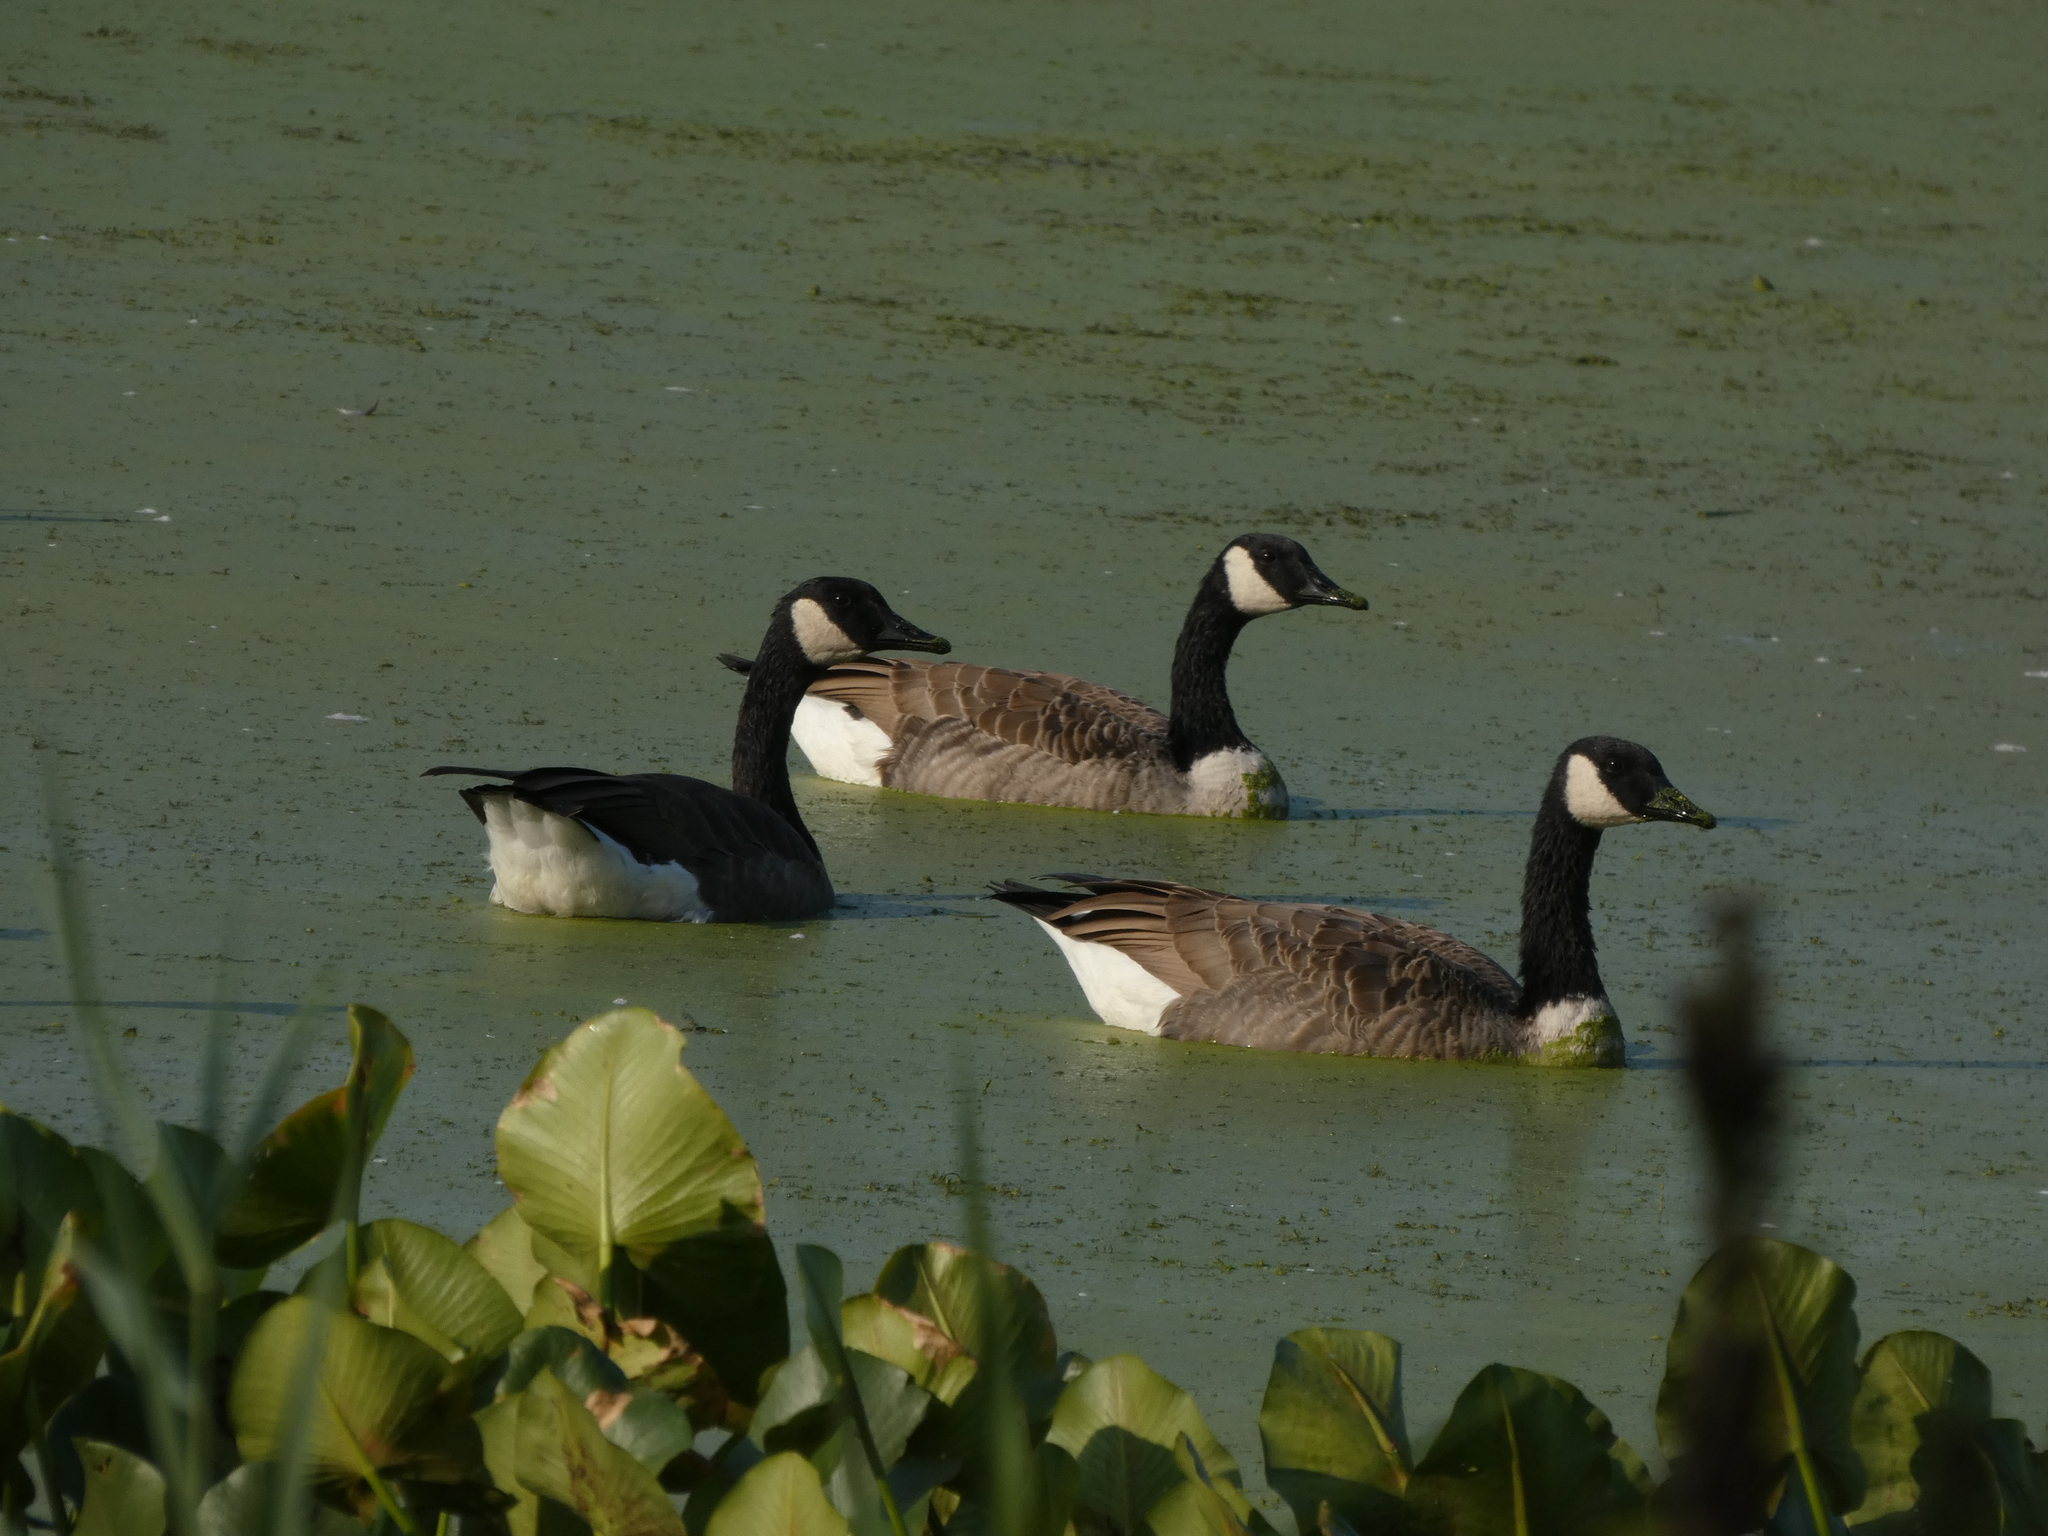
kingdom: Animalia
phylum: Chordata
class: Aves
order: Anseriformes
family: Anatidae
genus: Branta
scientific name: Branta canadensis
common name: Canada goose
